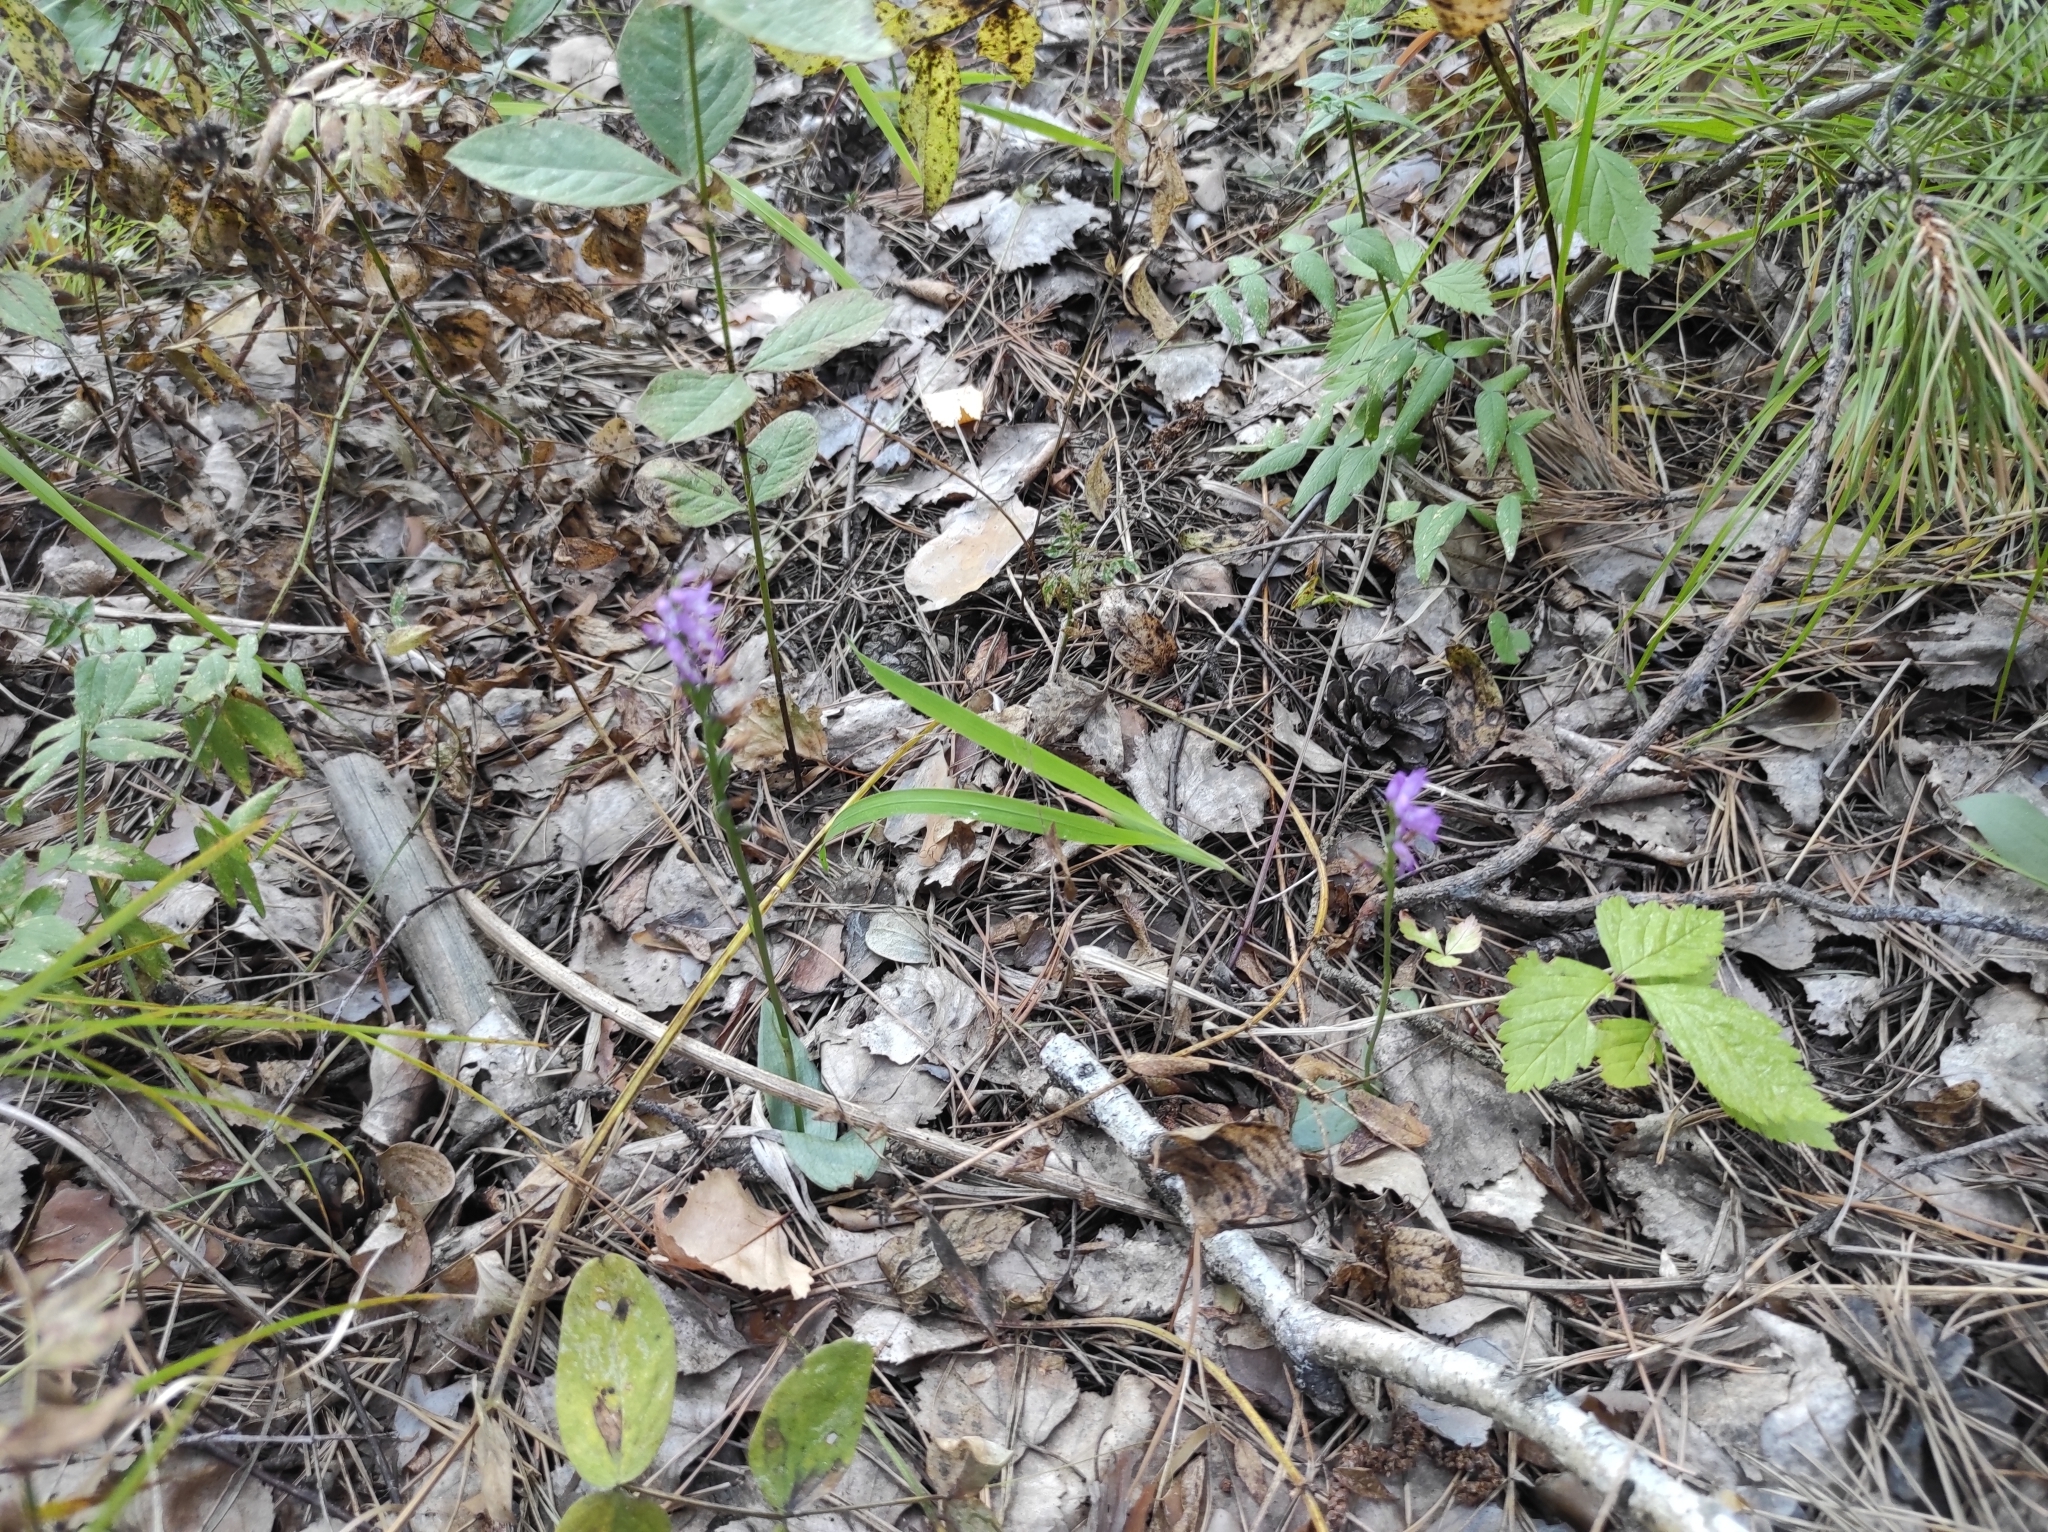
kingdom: Plantae
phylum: Tracheophyta
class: Liliopsida
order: Asparagales
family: Orchidaceae
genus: Hemipilia
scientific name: Hemipilia cucullata
